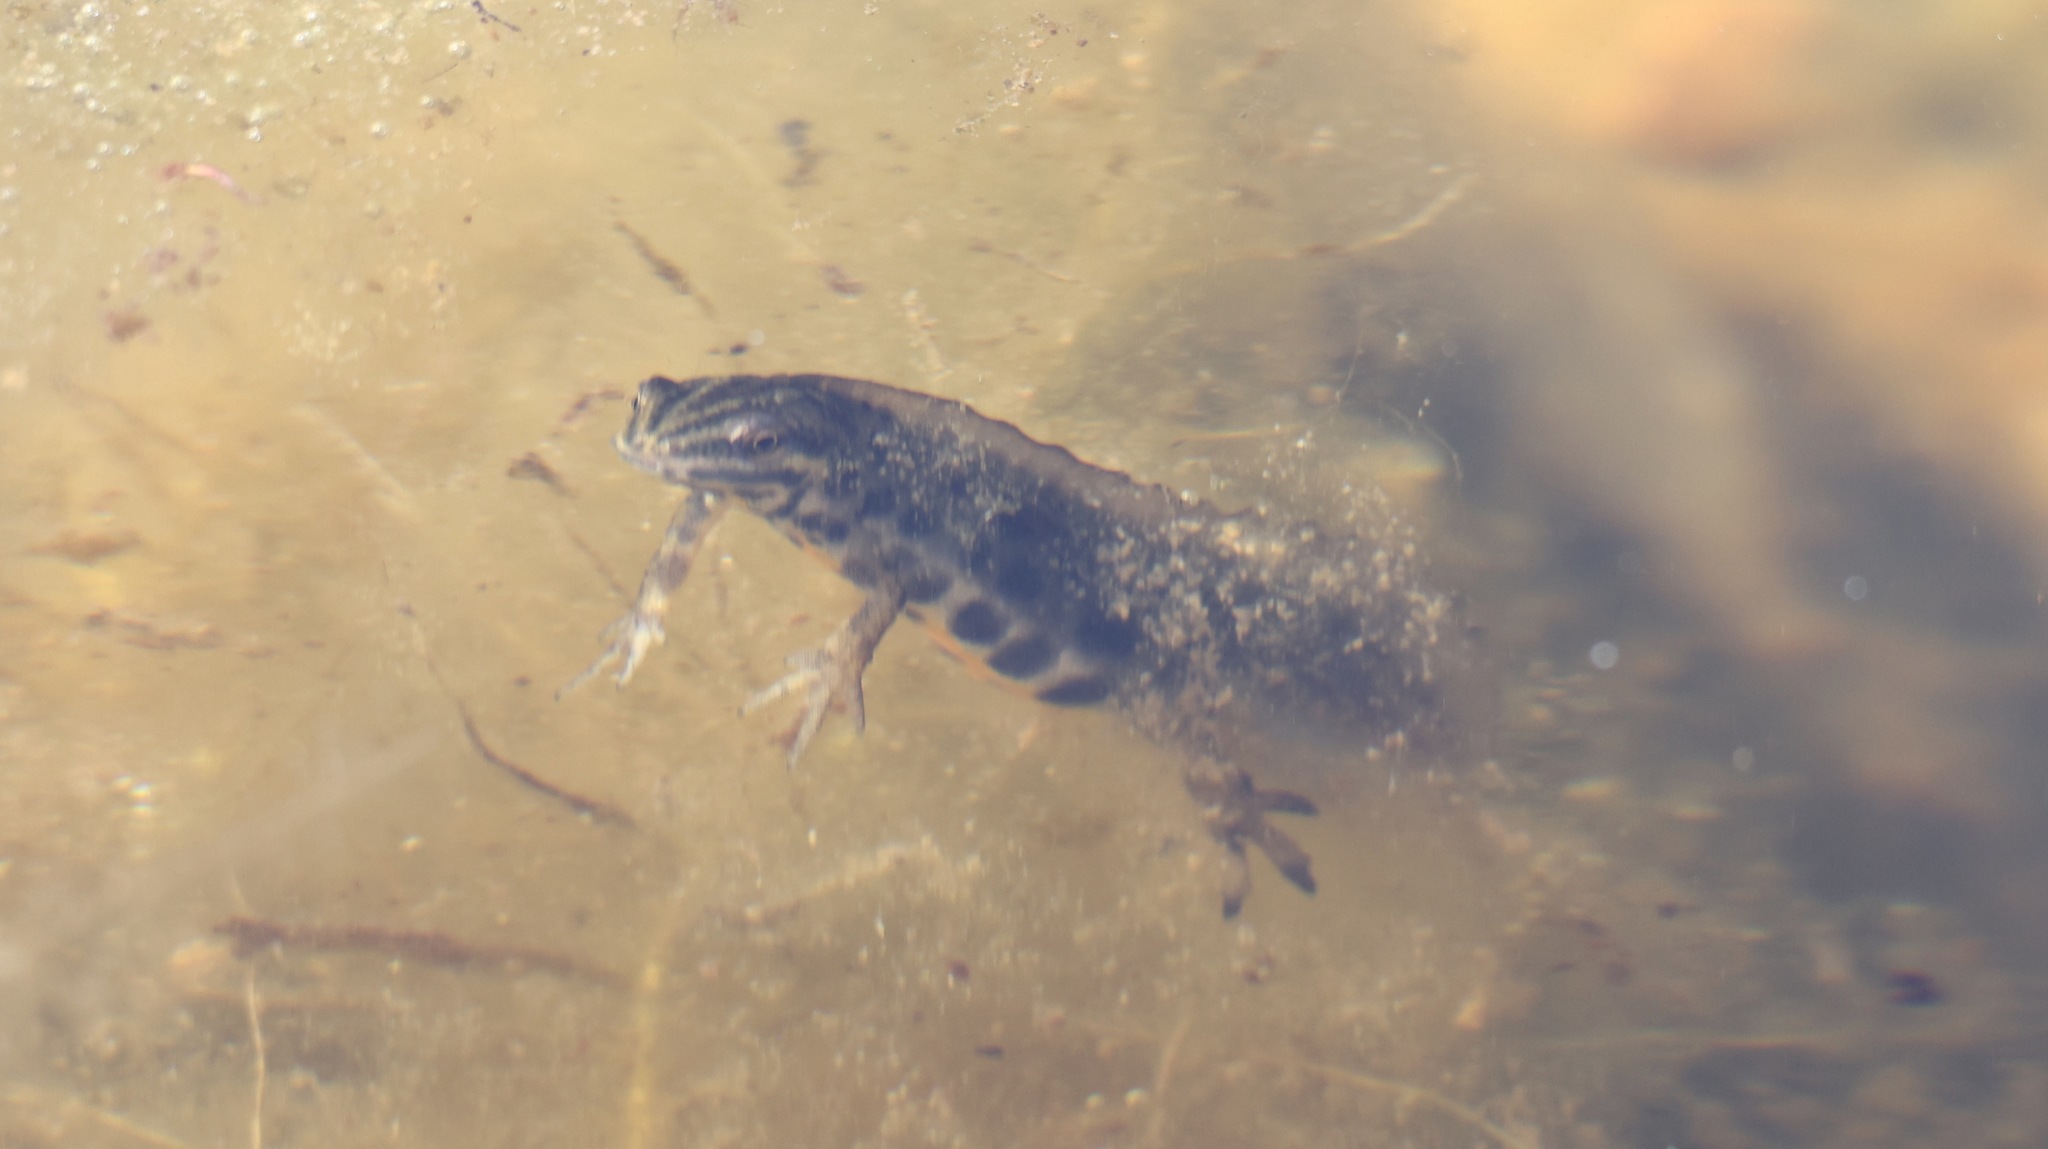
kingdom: Animalia
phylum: Chordata
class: Amphibia
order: Caudata
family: Salamandridae
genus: Lissotriton
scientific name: Lissotriton vulgaris
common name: Smooth newt
